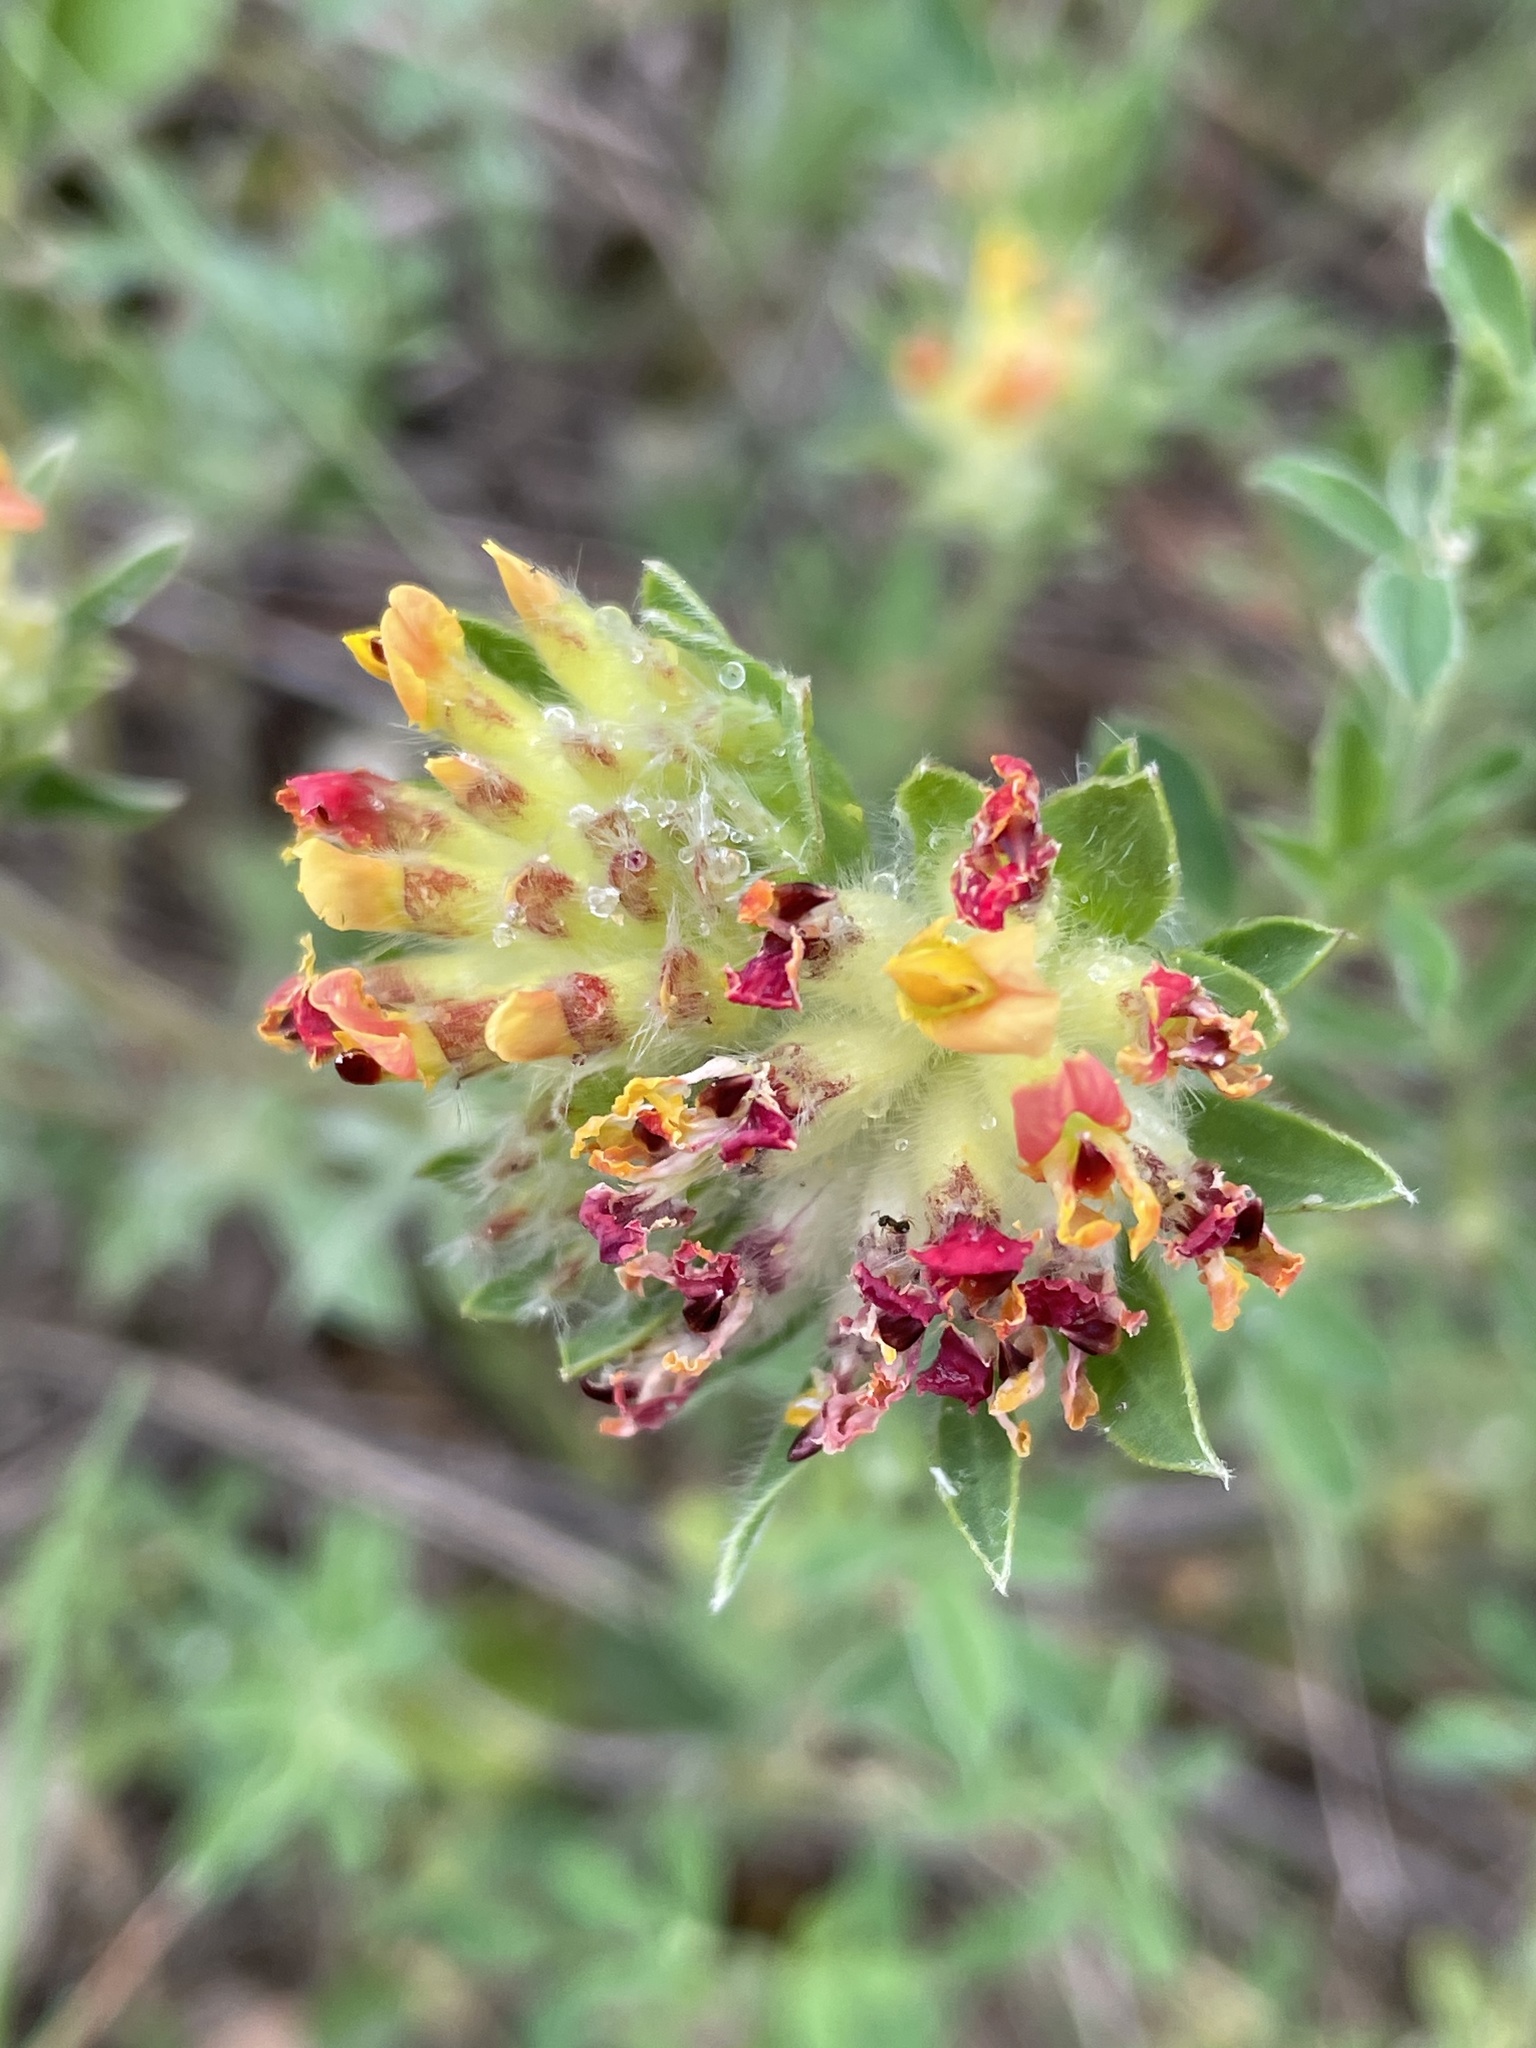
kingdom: Plantae
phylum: Tracheophyta
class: Magnoliopsida
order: Fabales
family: Fabaceae
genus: Anthyllis
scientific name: Anthyllis vulneraria
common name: Kidney vetch
